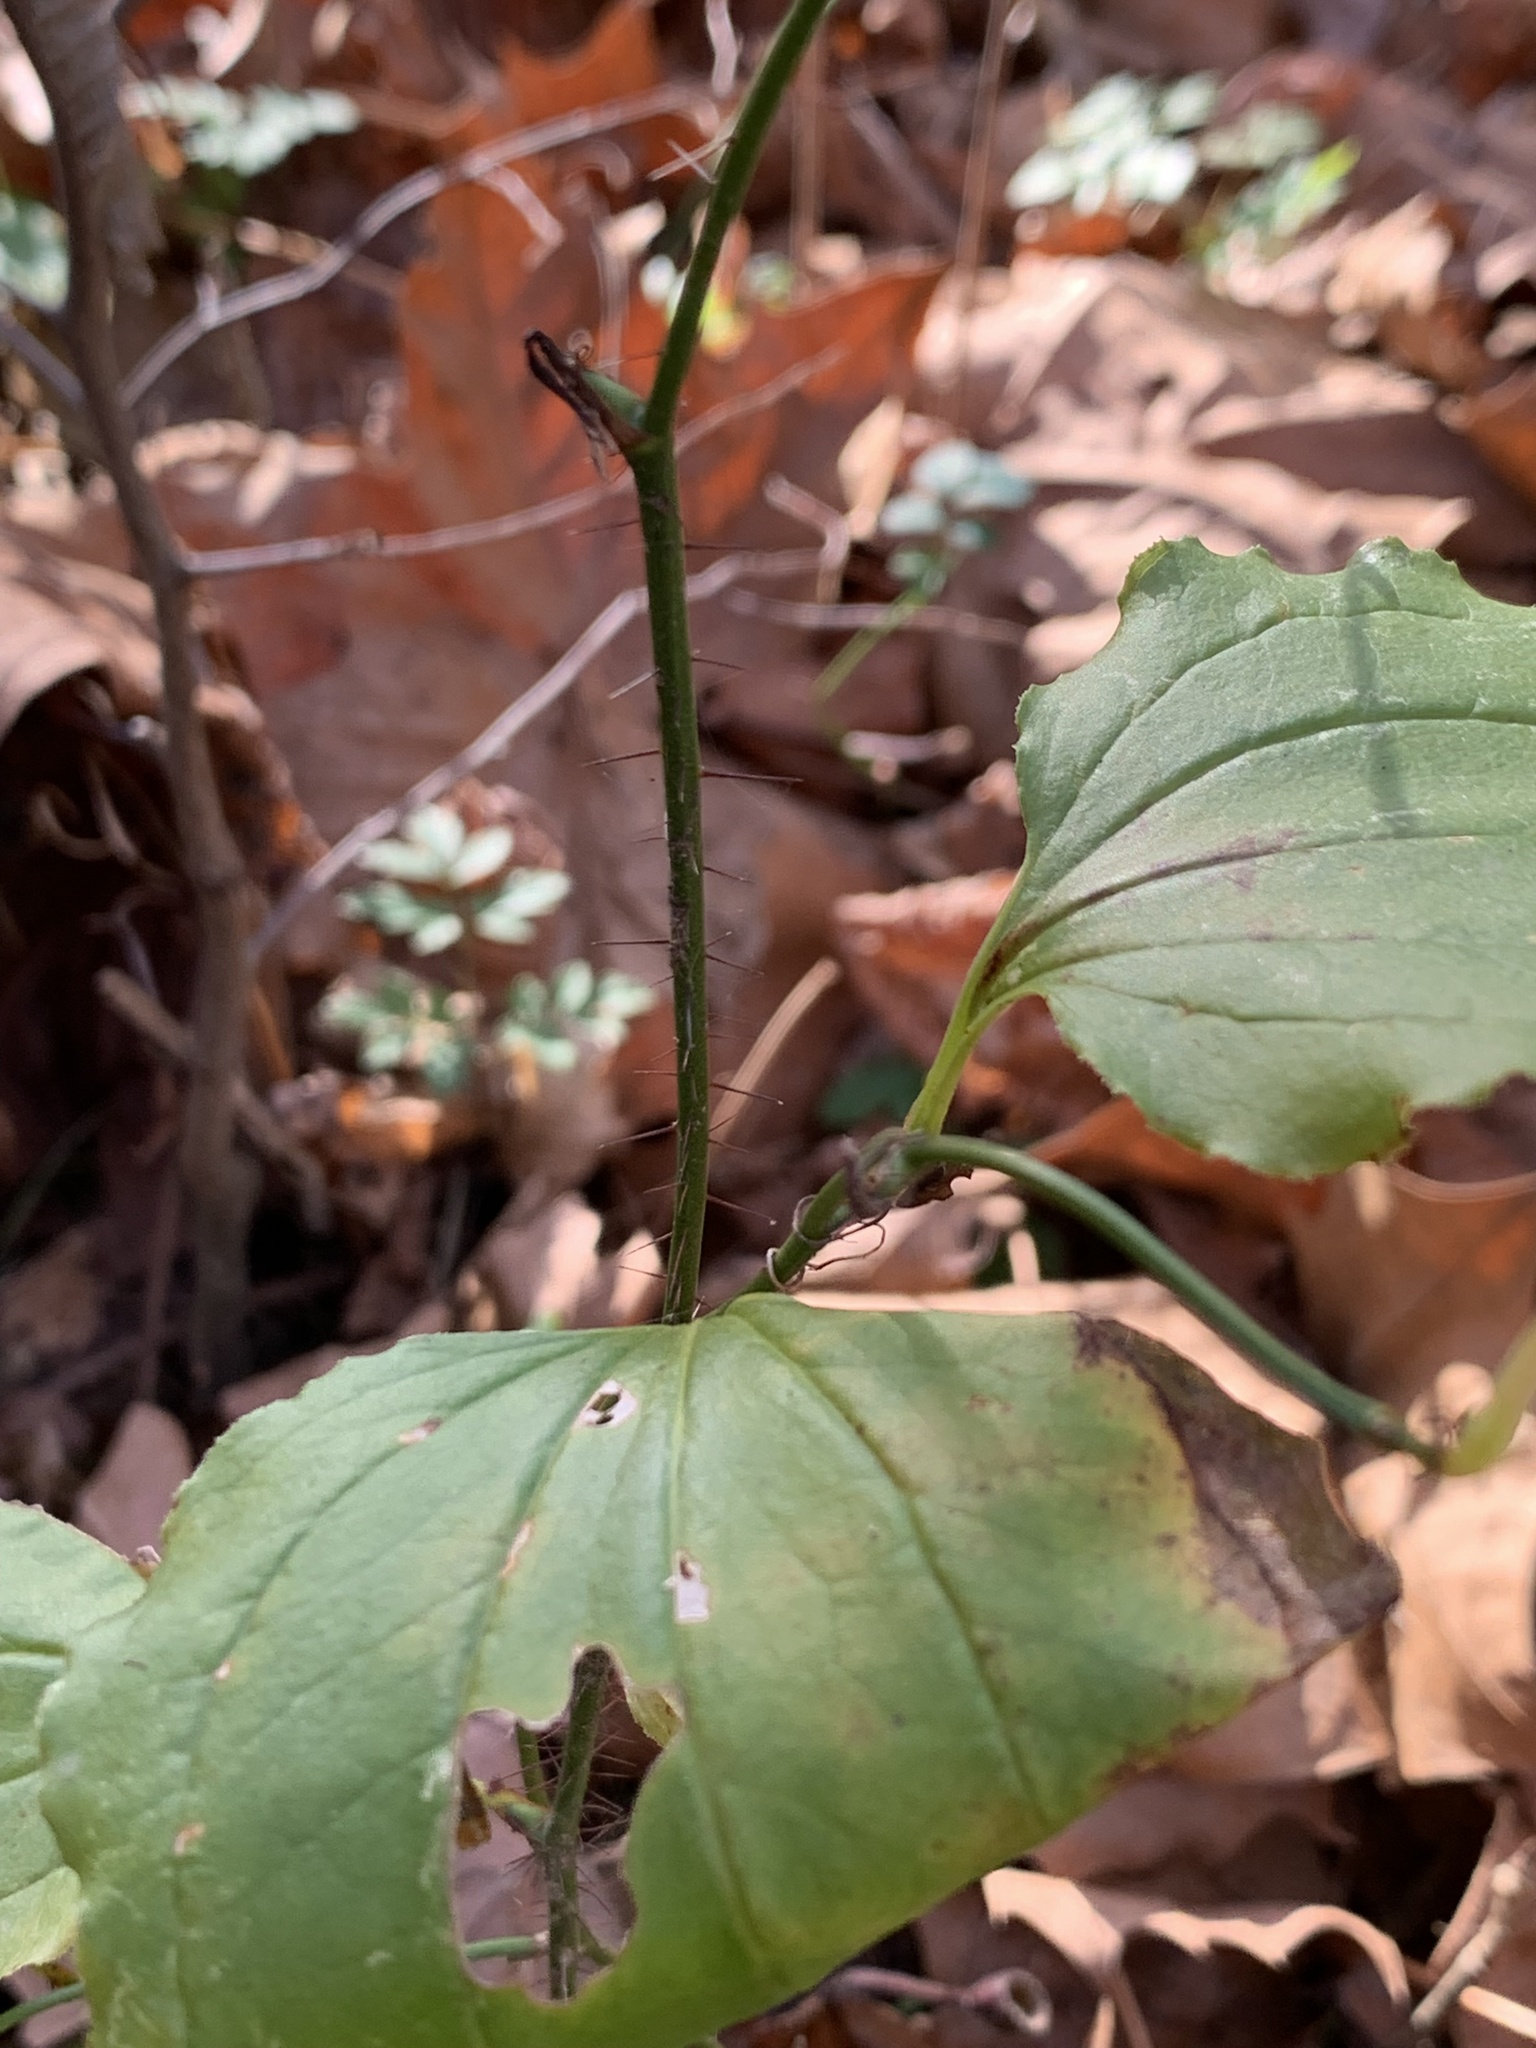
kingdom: Plantae
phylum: Tracheophyta
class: Liliopsida
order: Liliales
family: Smilacaceae
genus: Smilax
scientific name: Smilax tamnoides
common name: Hellfetter
